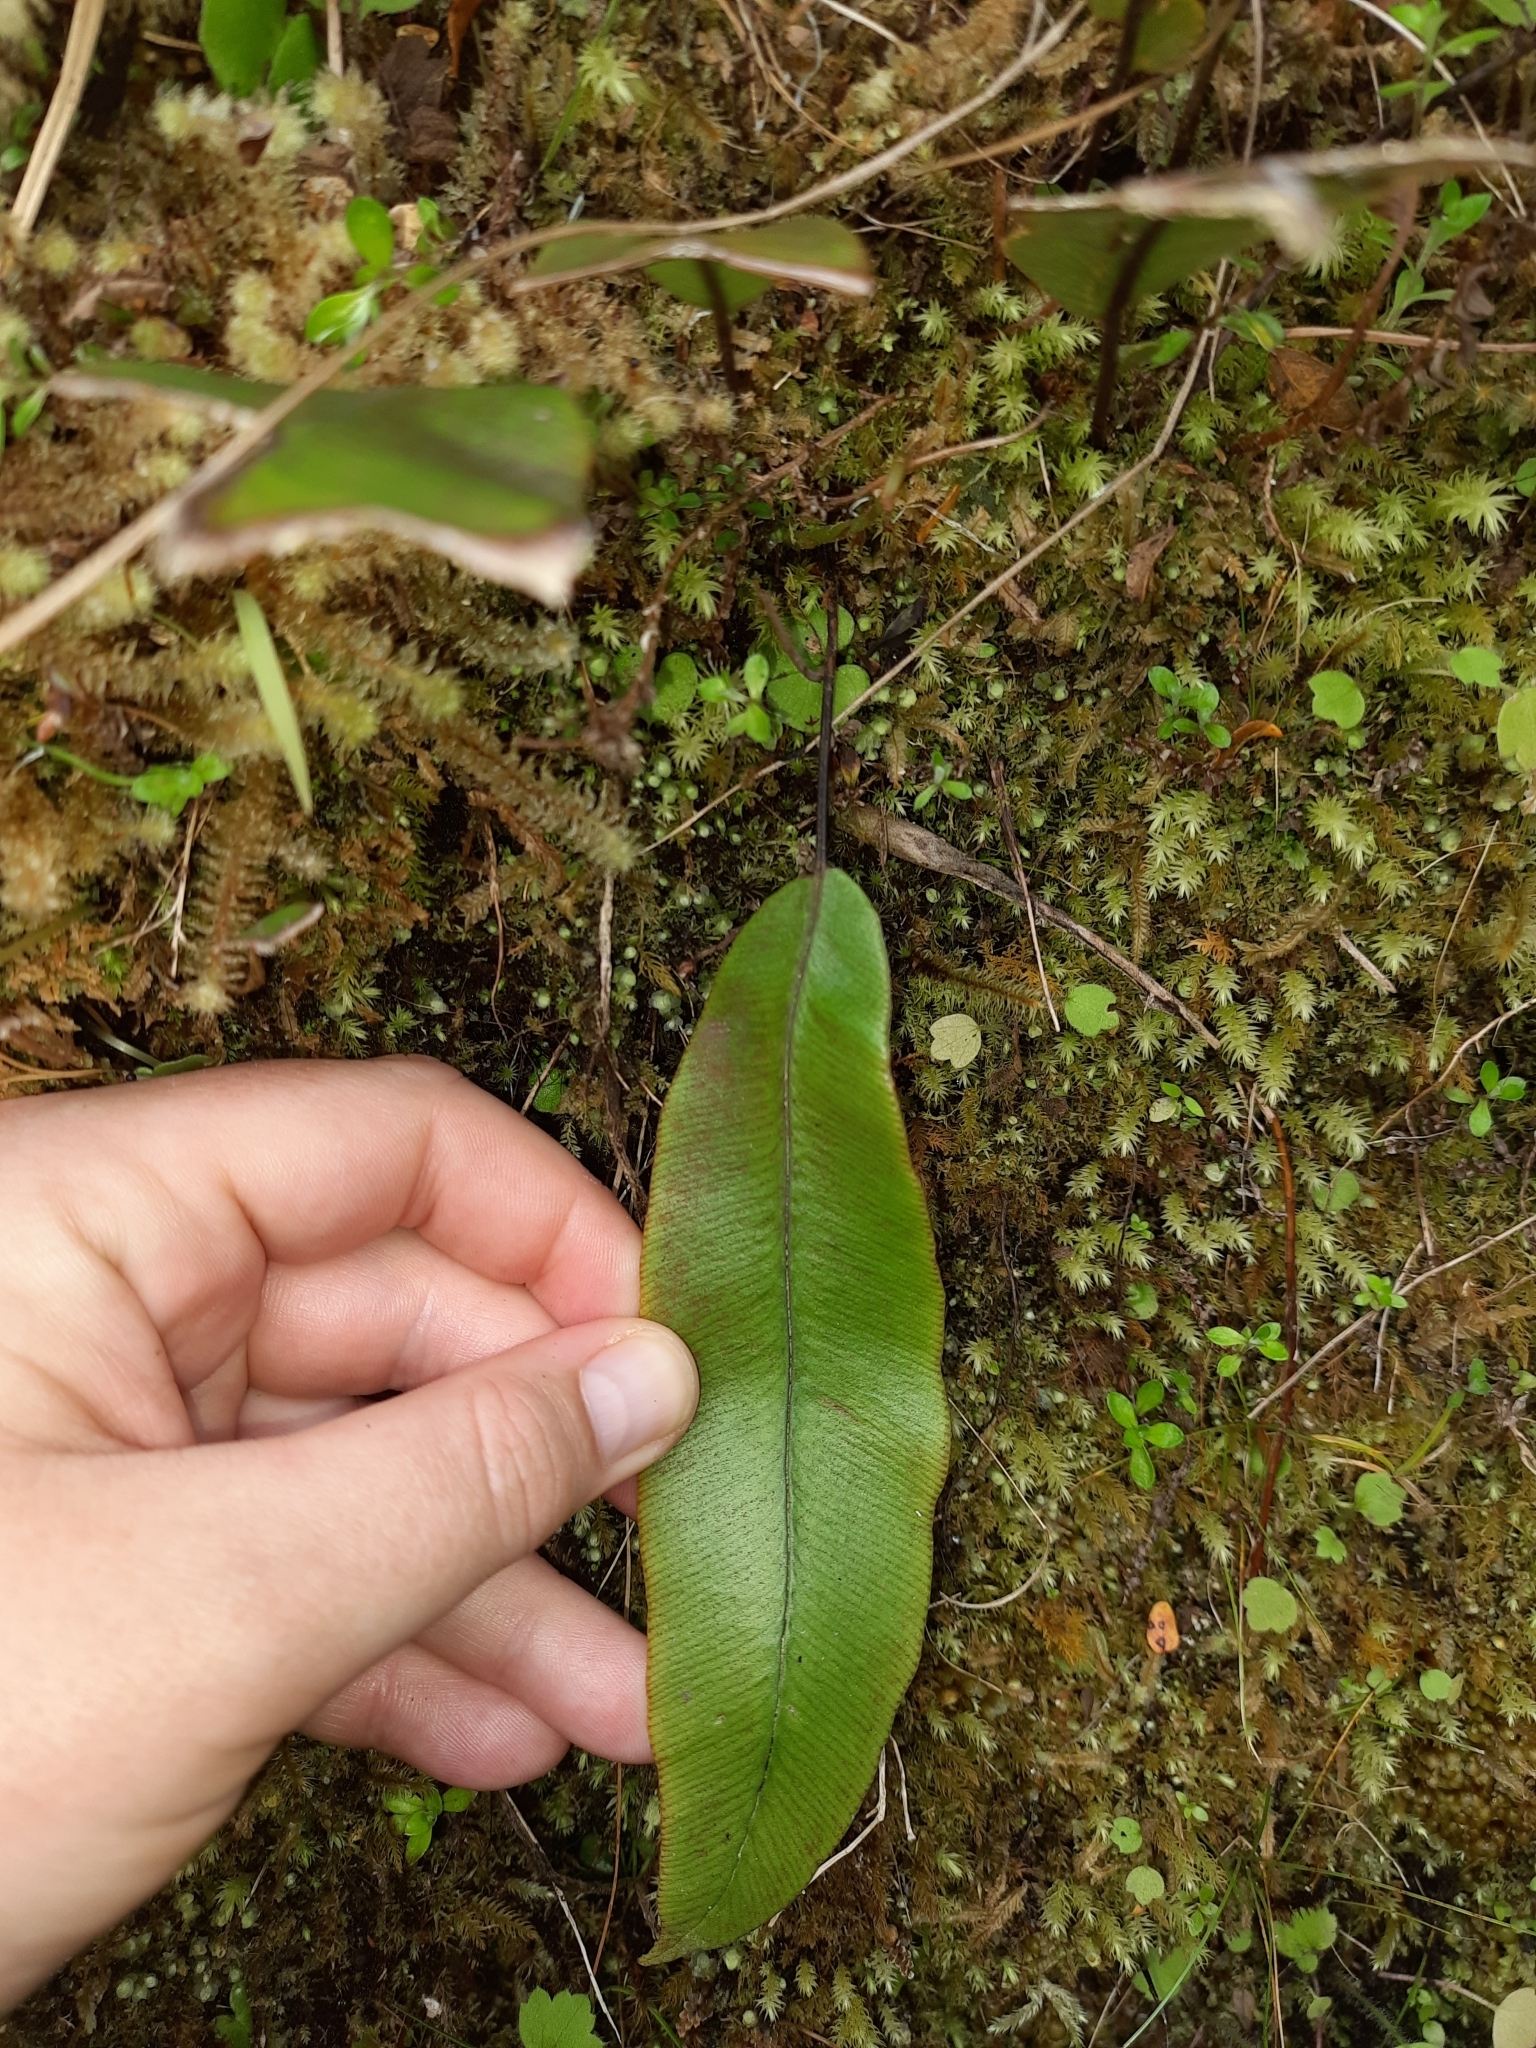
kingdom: Plantae
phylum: Tracheophyta
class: Polypodiopsida
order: Polypodiales
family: Blechnaceae
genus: Austroblechnum
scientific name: Austroblechnum colensoi
